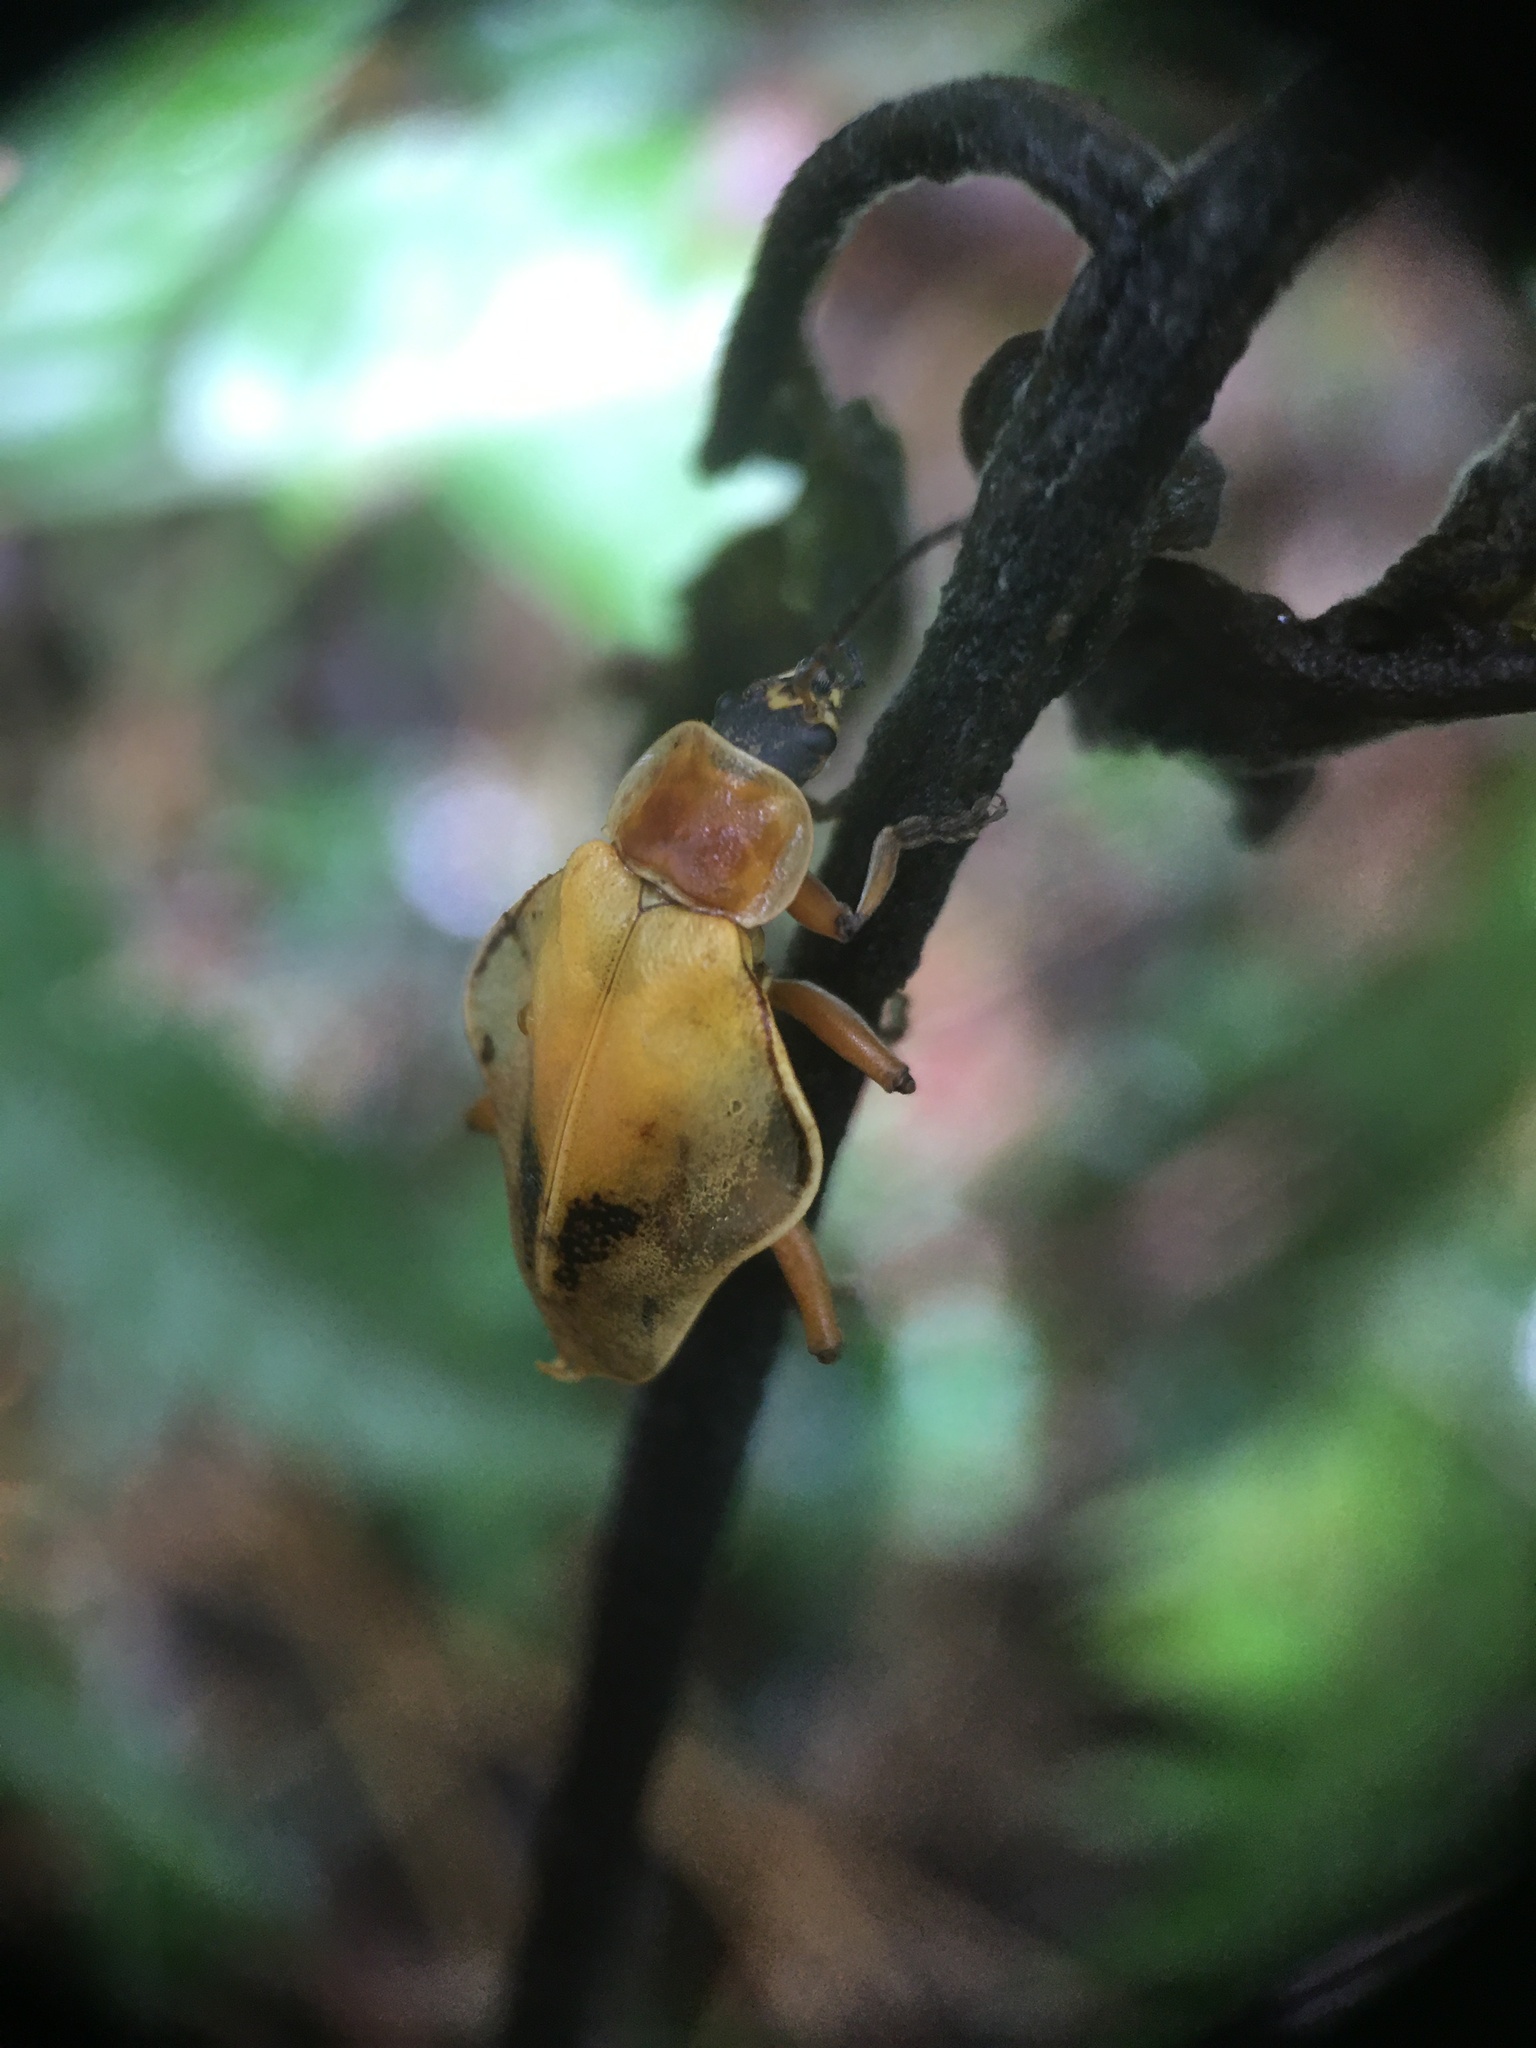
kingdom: Animalia
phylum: Arthropoda
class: Insecta
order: Coleoptera
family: Cantharidae
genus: Chauliognathus
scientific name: Chauliognathus
